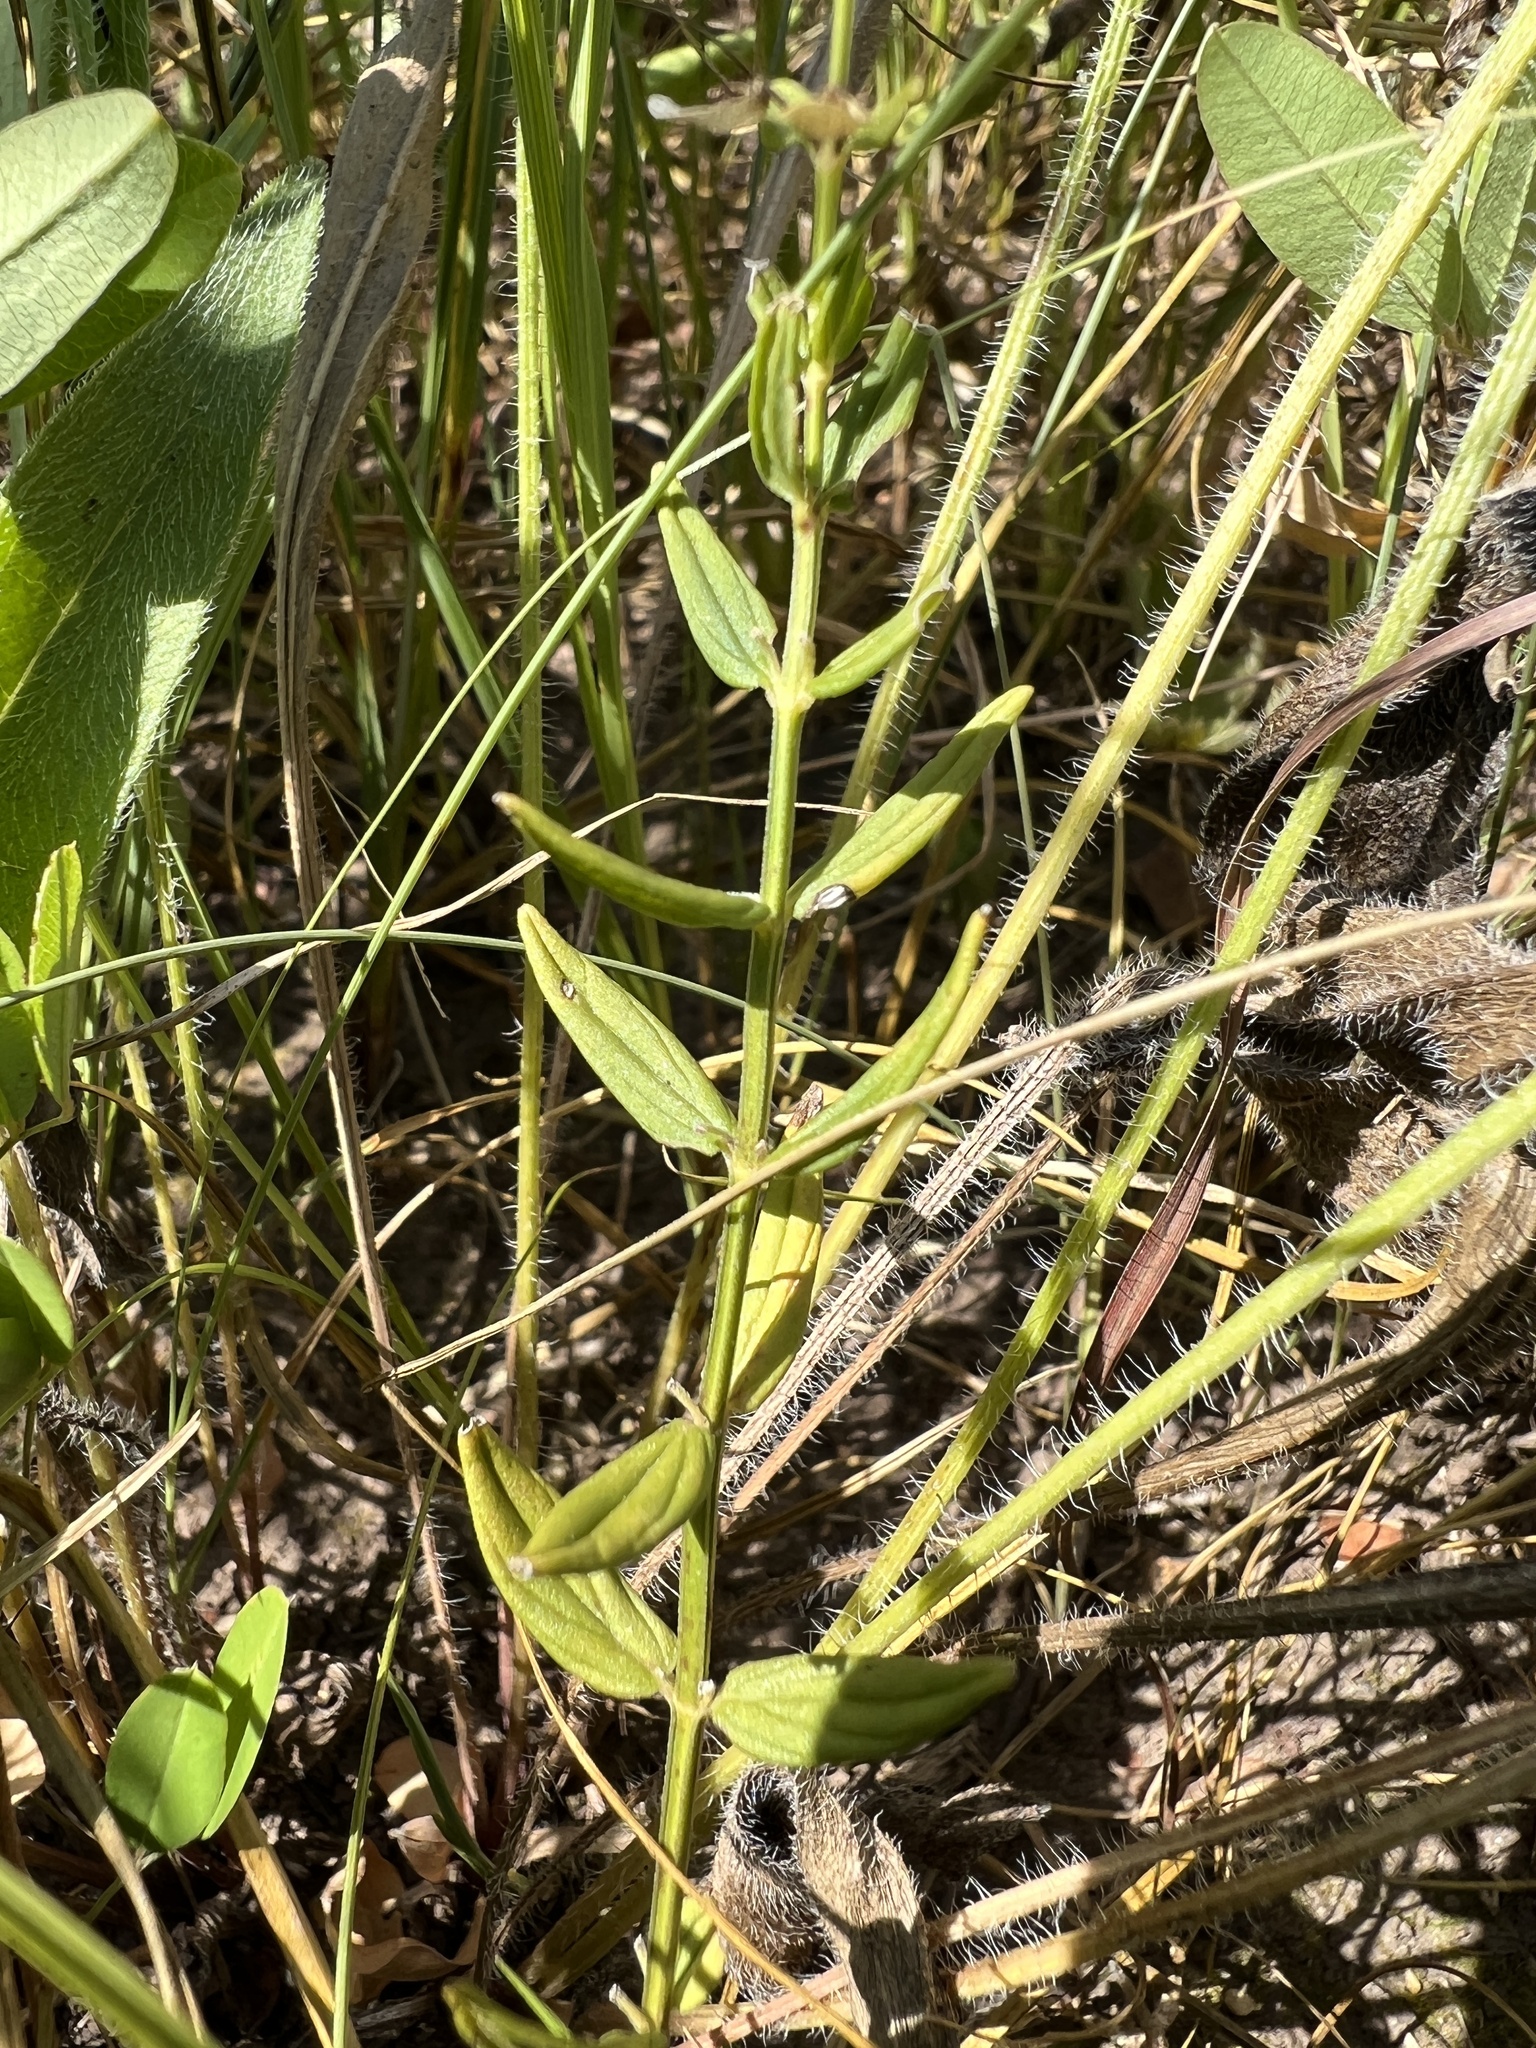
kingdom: Plantae
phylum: Tracheophyta
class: Magnoliopsida
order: Lamiales
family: Lamiaceae
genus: Scutellaria
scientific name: Scutellaria parvula
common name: Little scullcap
